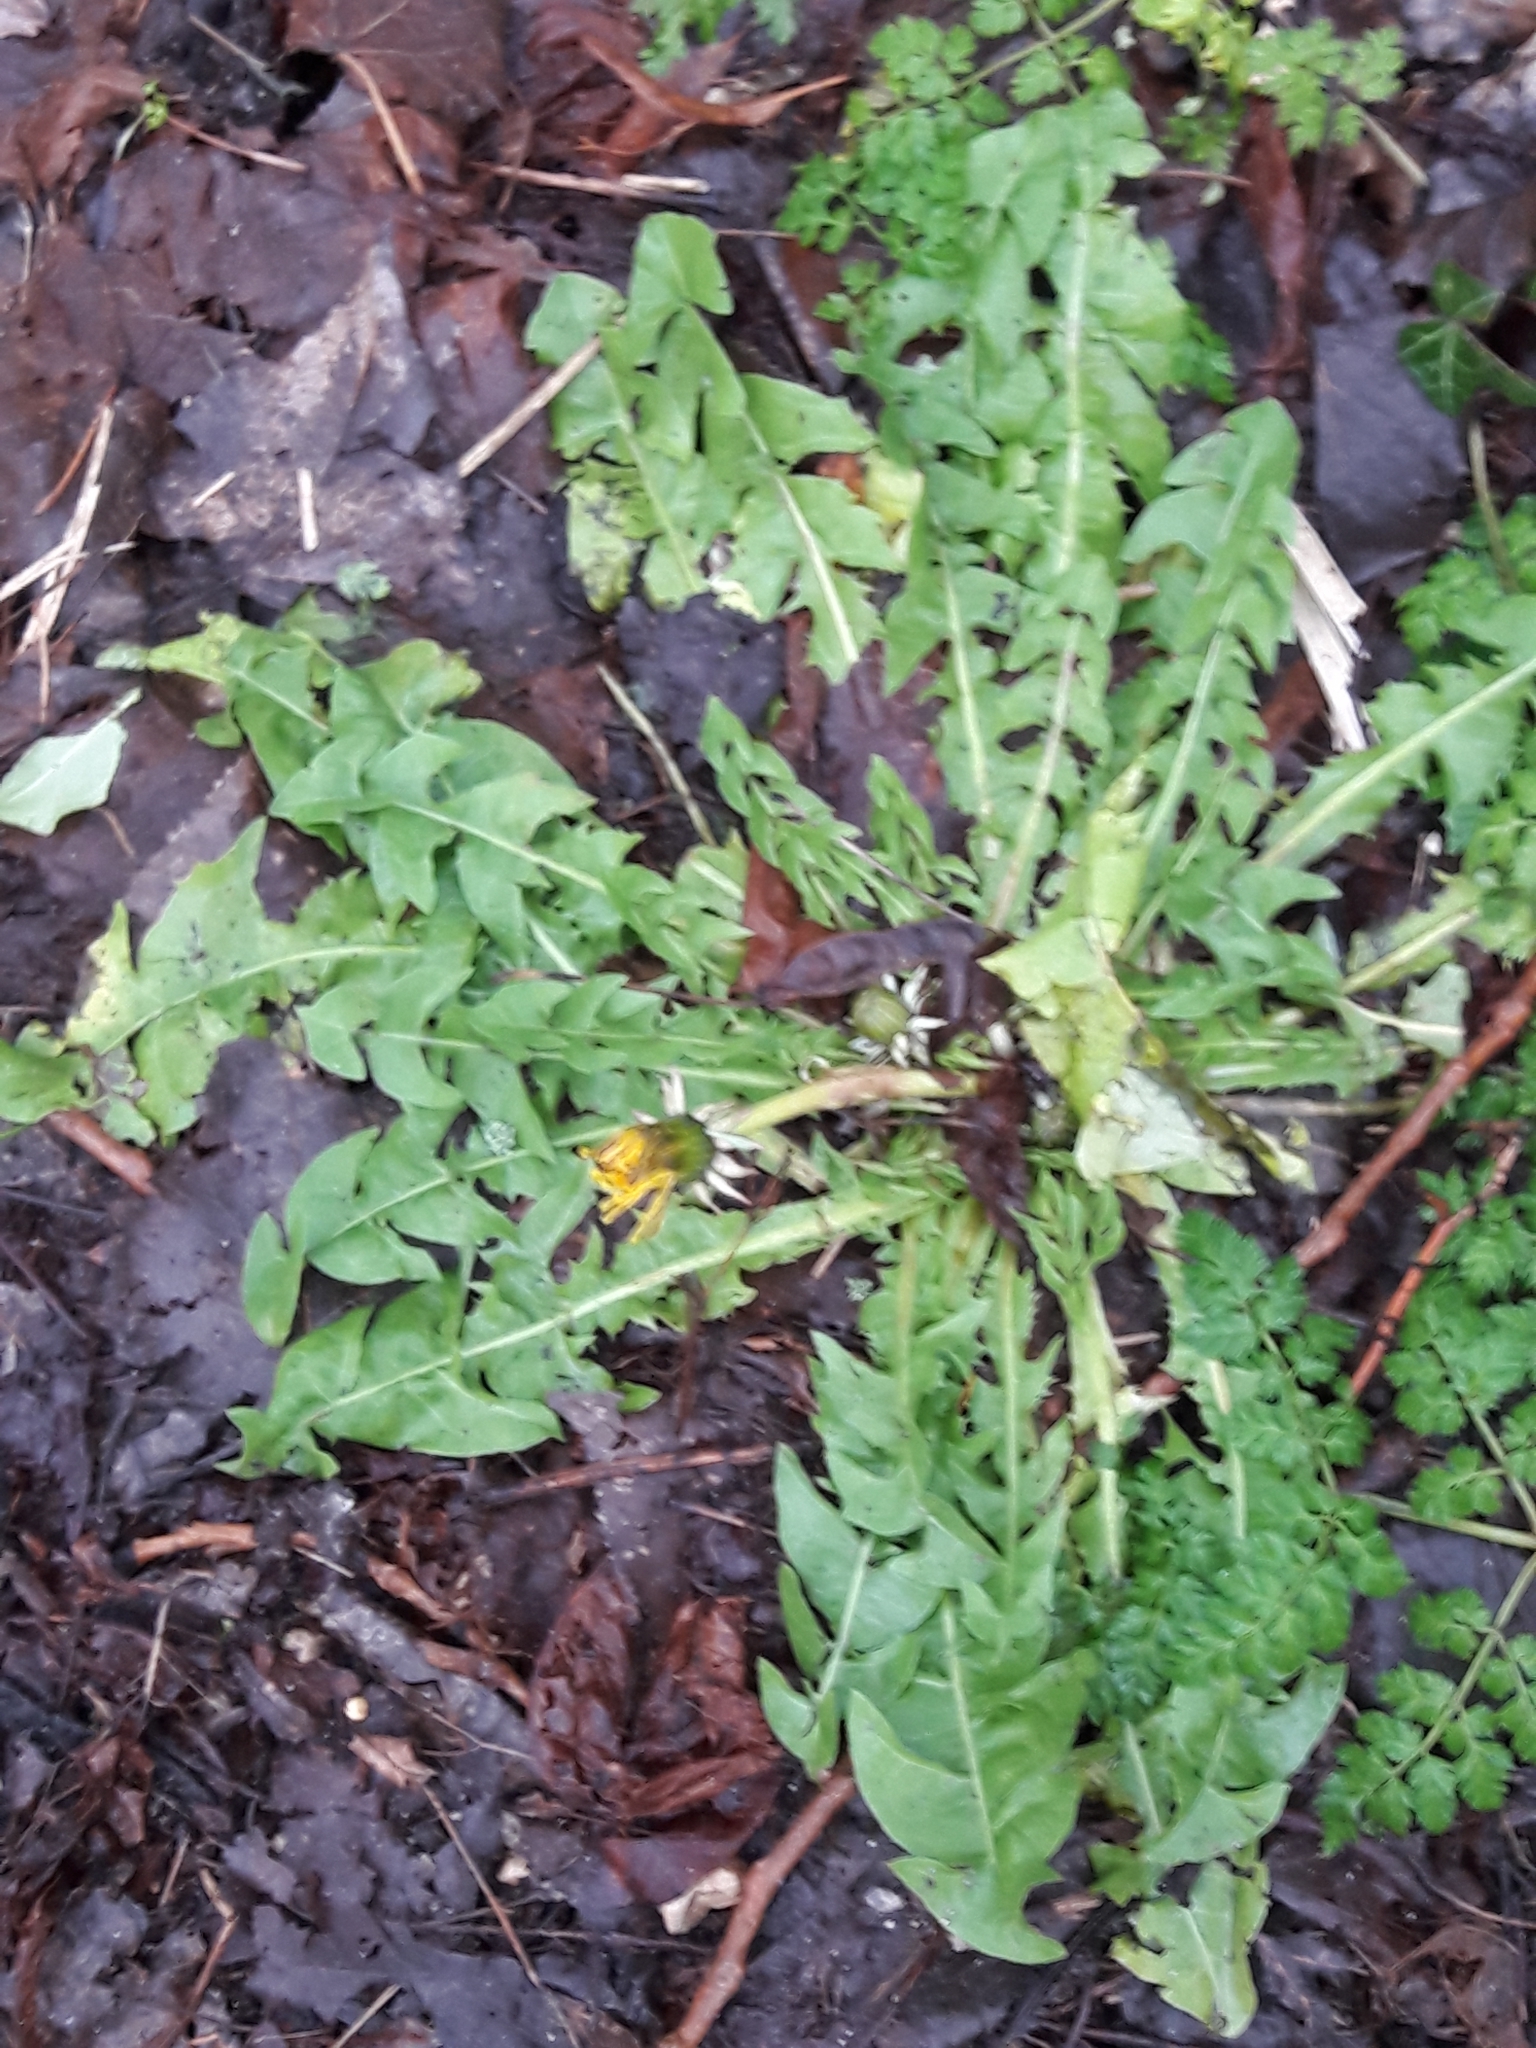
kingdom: Plantae
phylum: Tracheophyta
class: Magnoliopsida
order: Asterales
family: Asteraceae
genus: Taraxacum
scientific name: Taraxacum officinale
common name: Common dandelion
